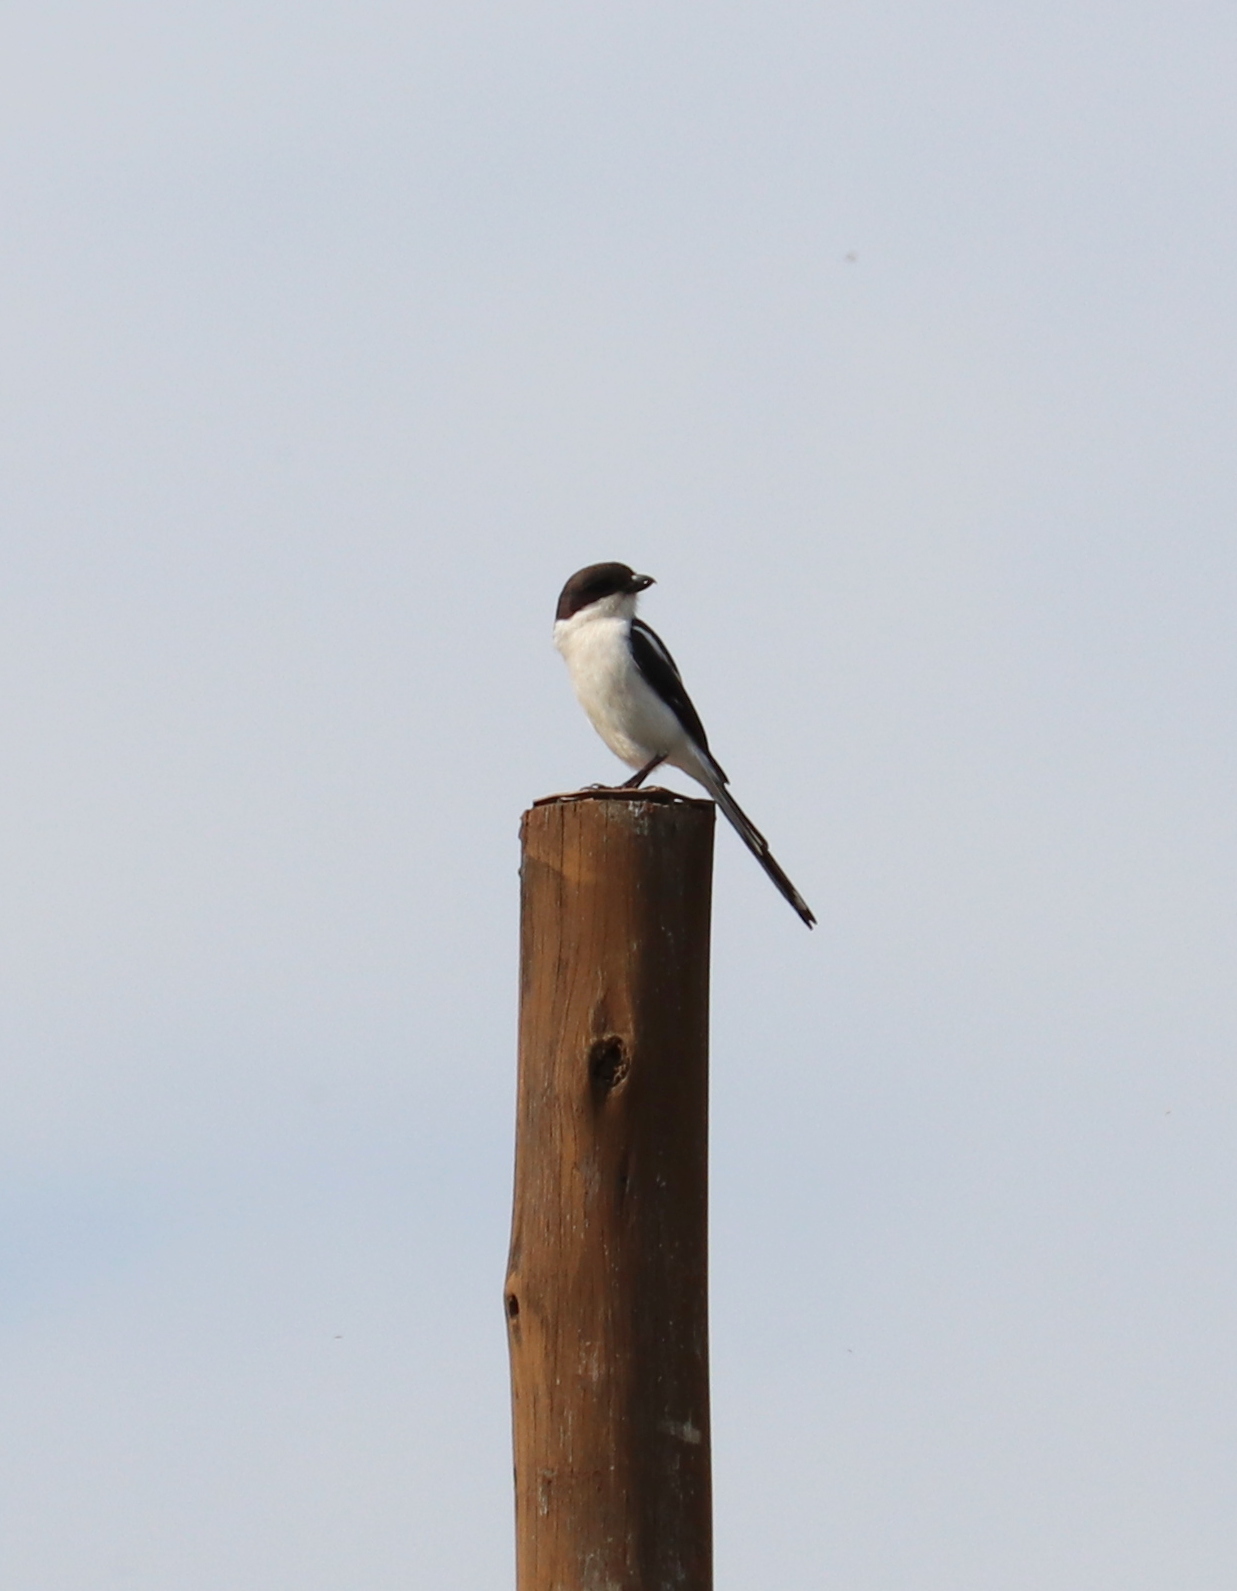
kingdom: Animalia
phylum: Chordata
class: Aves
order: Passeriformes
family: Laniidae
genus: Lanius
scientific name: Lanius collaris
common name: Southern fiscal
